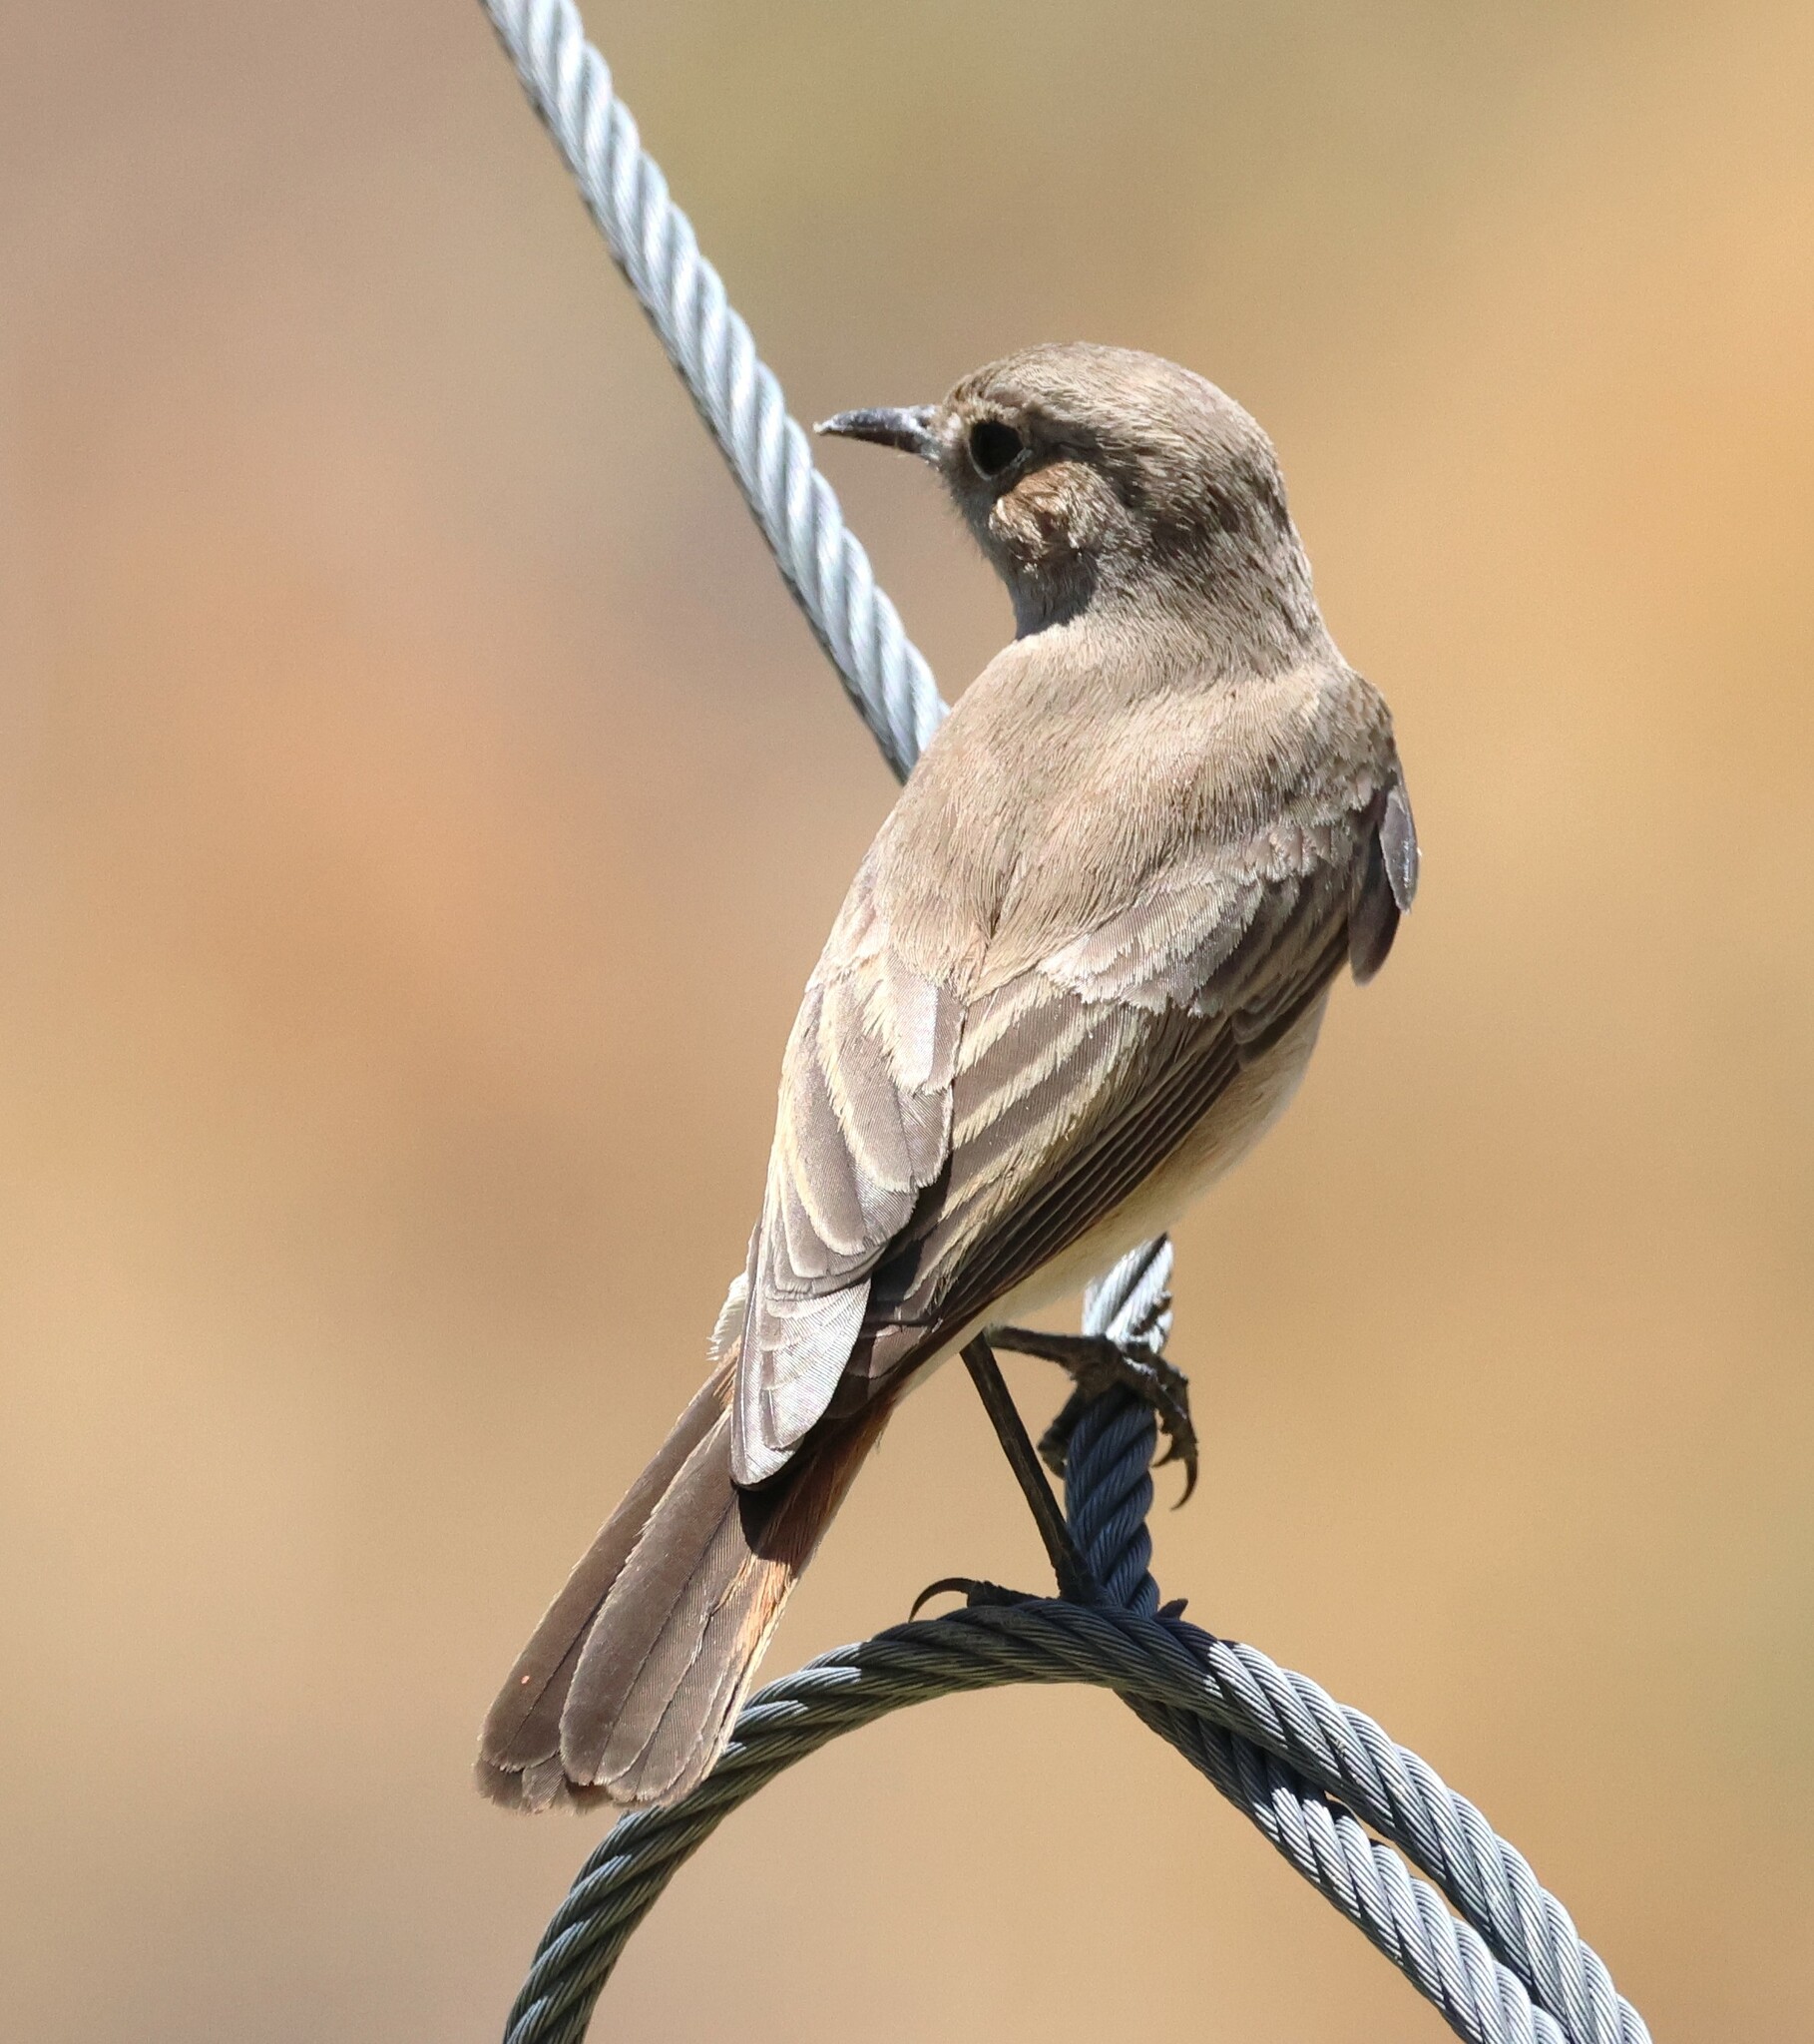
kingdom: Animalia
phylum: Chordata
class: Aves
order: Passeriformes
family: Muscicapidae
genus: Oenanthe
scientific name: Oenanthe familiaris
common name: Familiar chat
